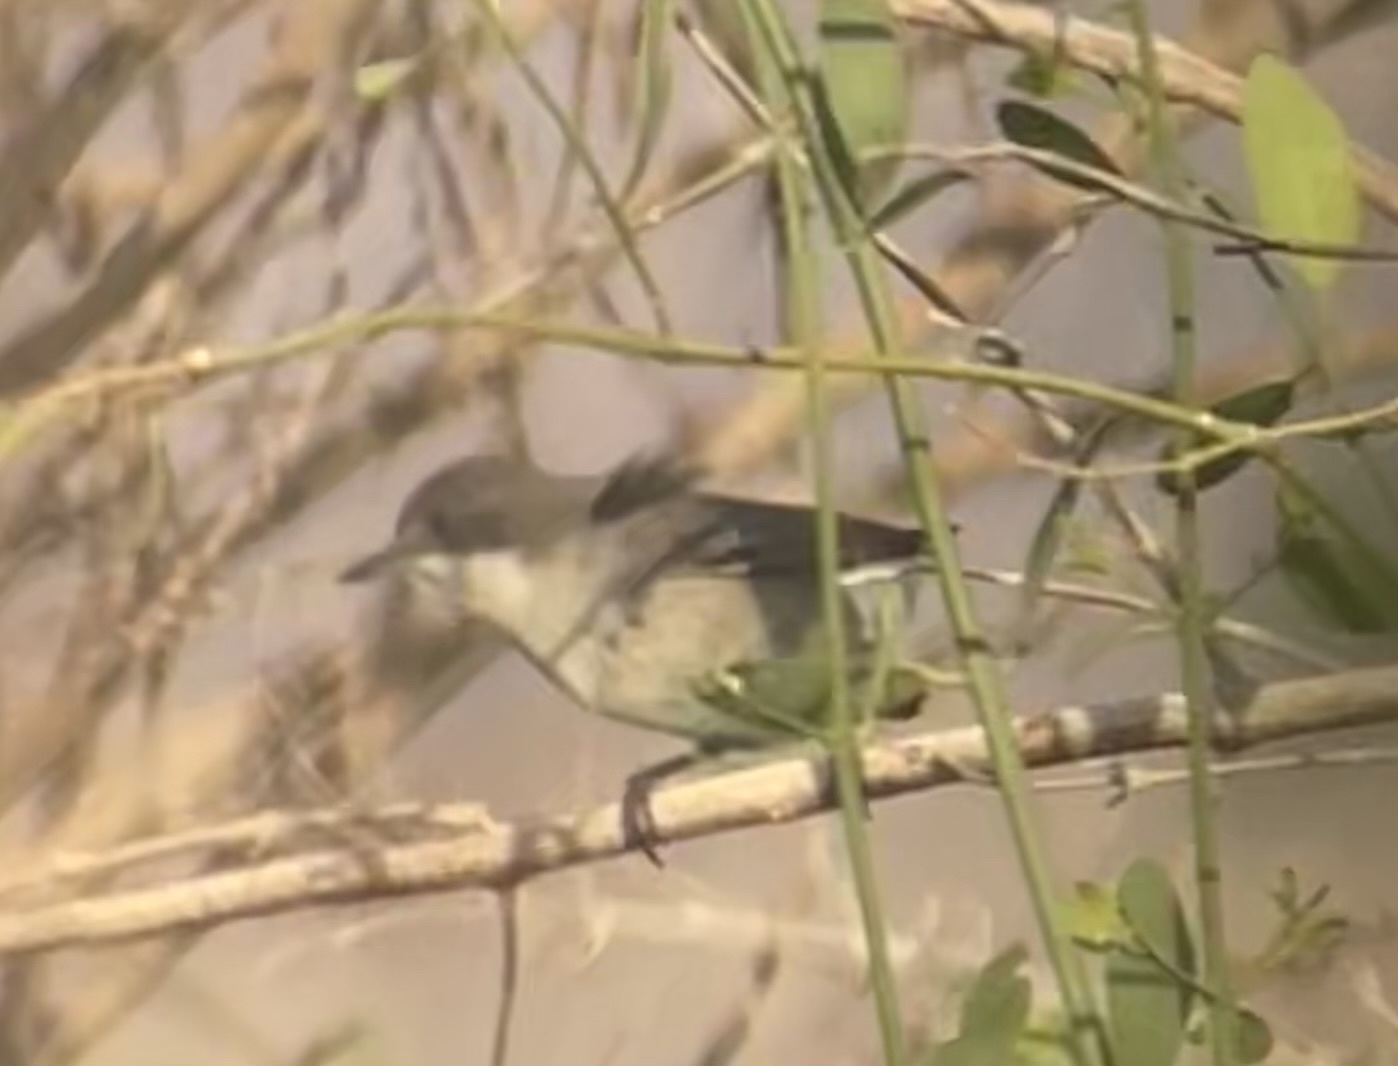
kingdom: Animalia
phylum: Chordata
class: Aves
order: Passeriformes
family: Sylviidae
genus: Sylvia
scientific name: Sylvia curruca
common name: Lesser whitethroat
